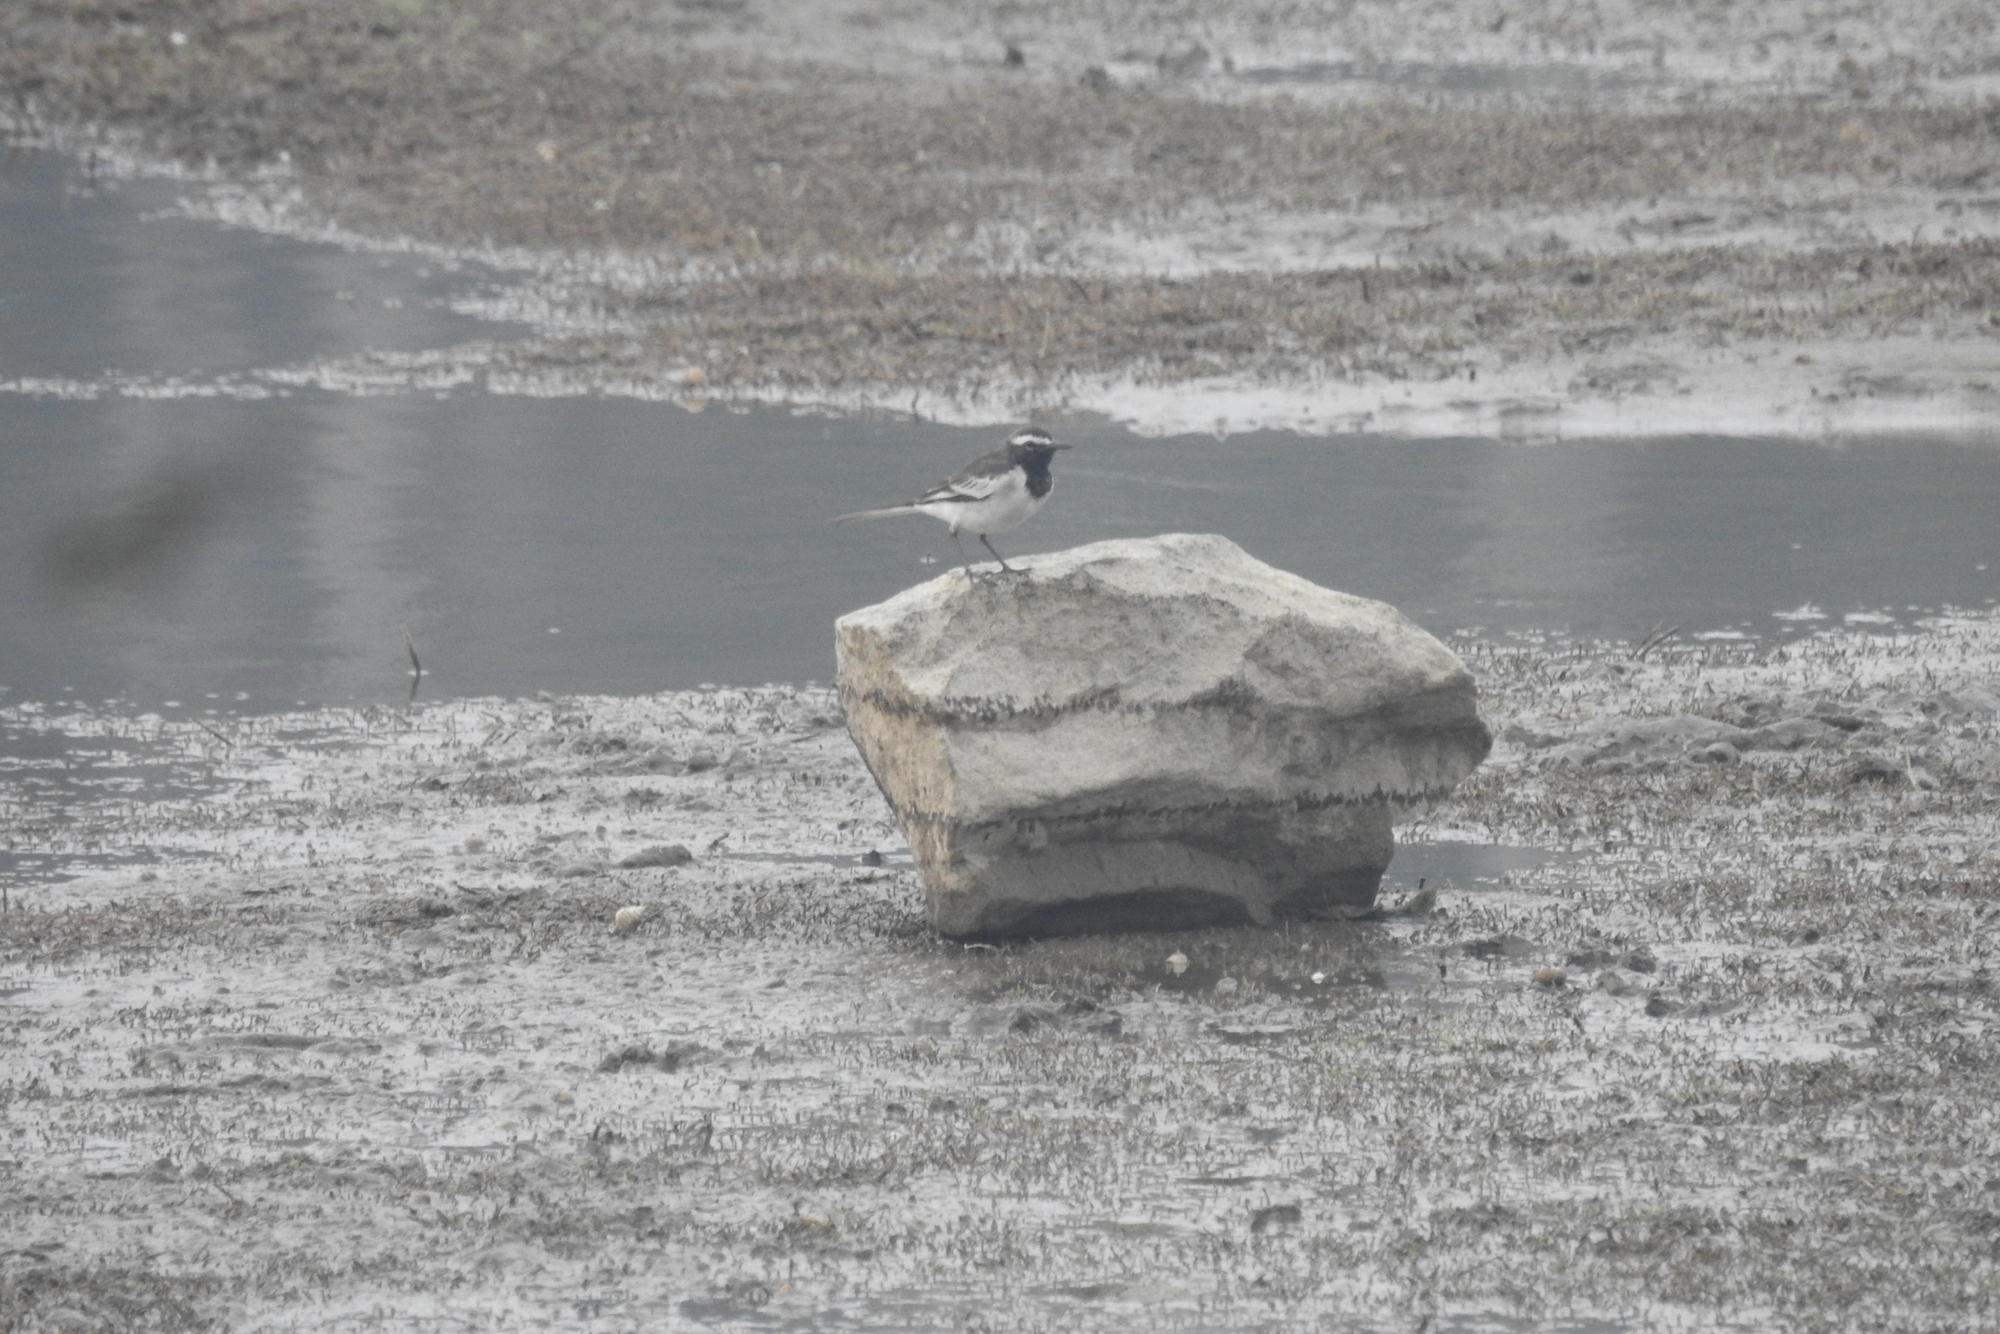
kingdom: Animalia
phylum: Chordata
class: Aves
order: Passeriformes
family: Motacillidae
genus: Motacilla
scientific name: Motacilla maderaspatensis
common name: White-browed wagtail
